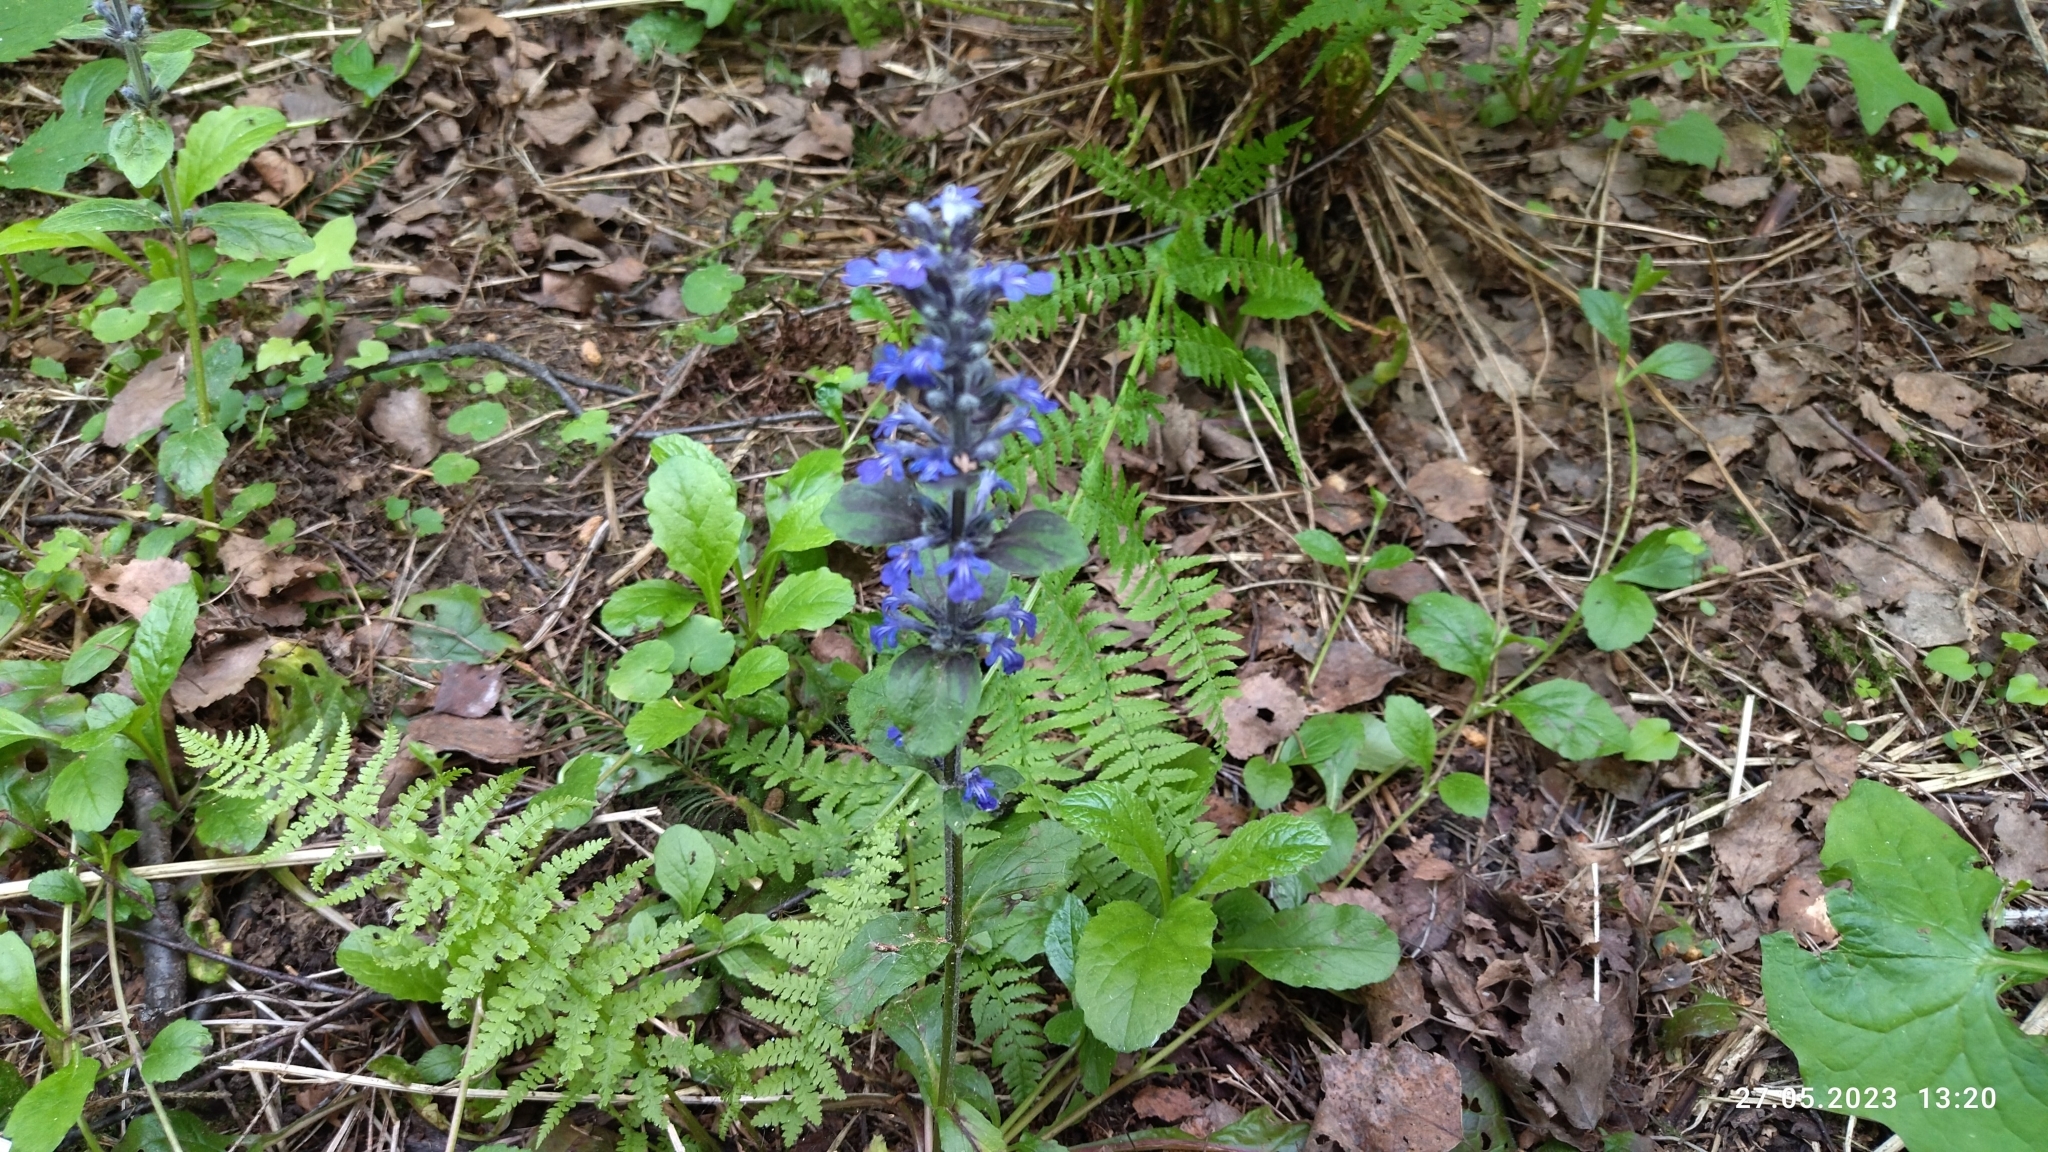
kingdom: Plantae
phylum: Tracheophyta
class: Magnoliopsida
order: Lamiales
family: Lamiaceae
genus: Ajuga
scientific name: Ajuga reptans
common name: Bugle
